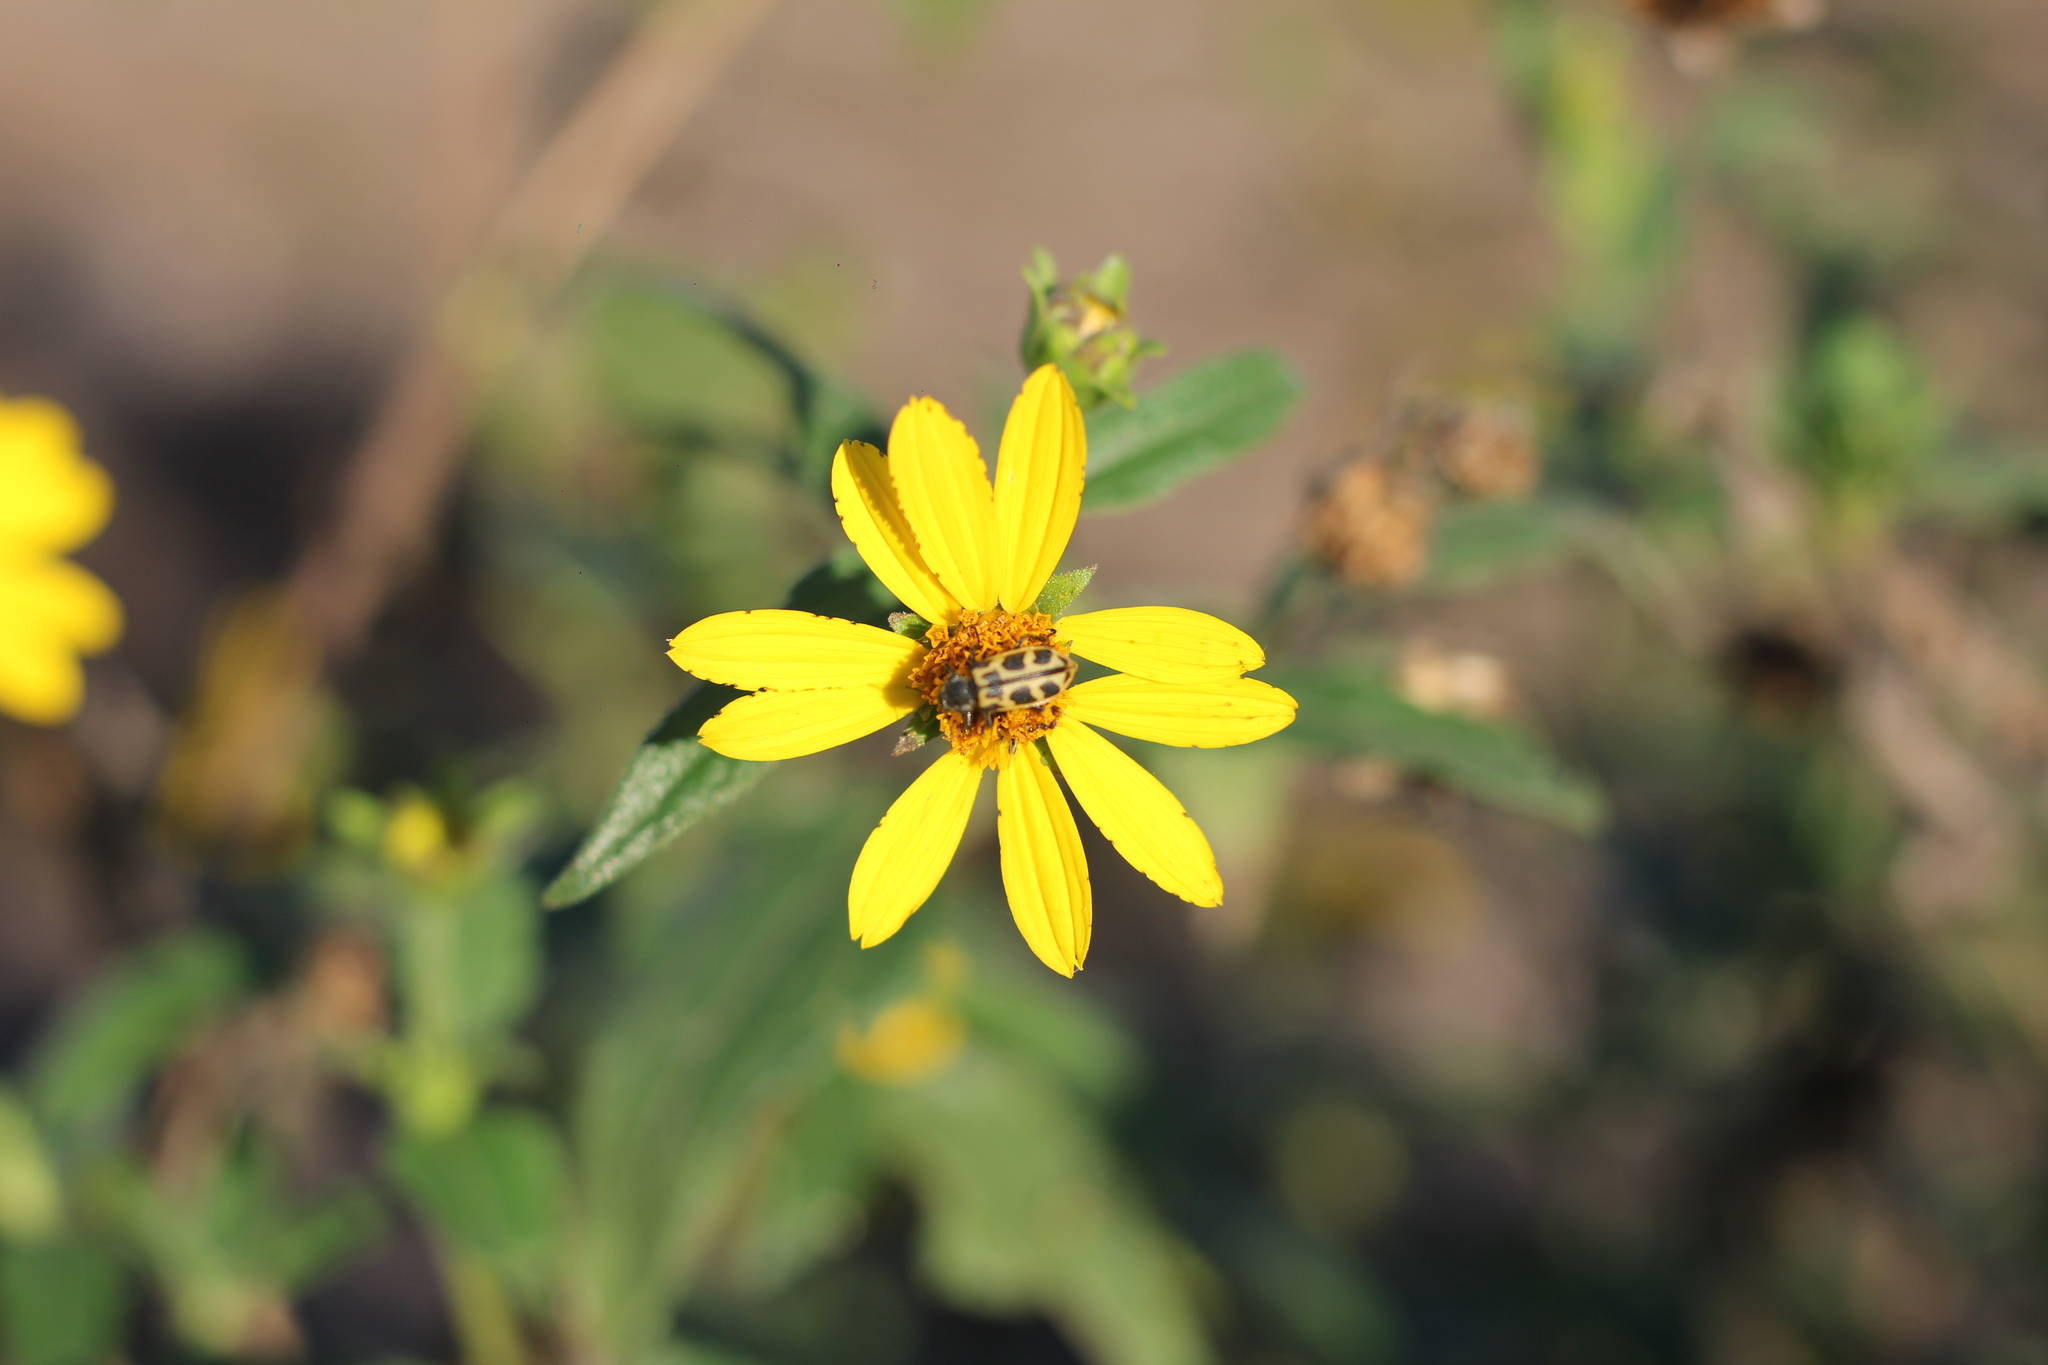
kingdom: Animalia
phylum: Arthropoda
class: Insecta
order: Coleoptera
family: Melyridae
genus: Astylus
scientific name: Astylus atromaculatus
